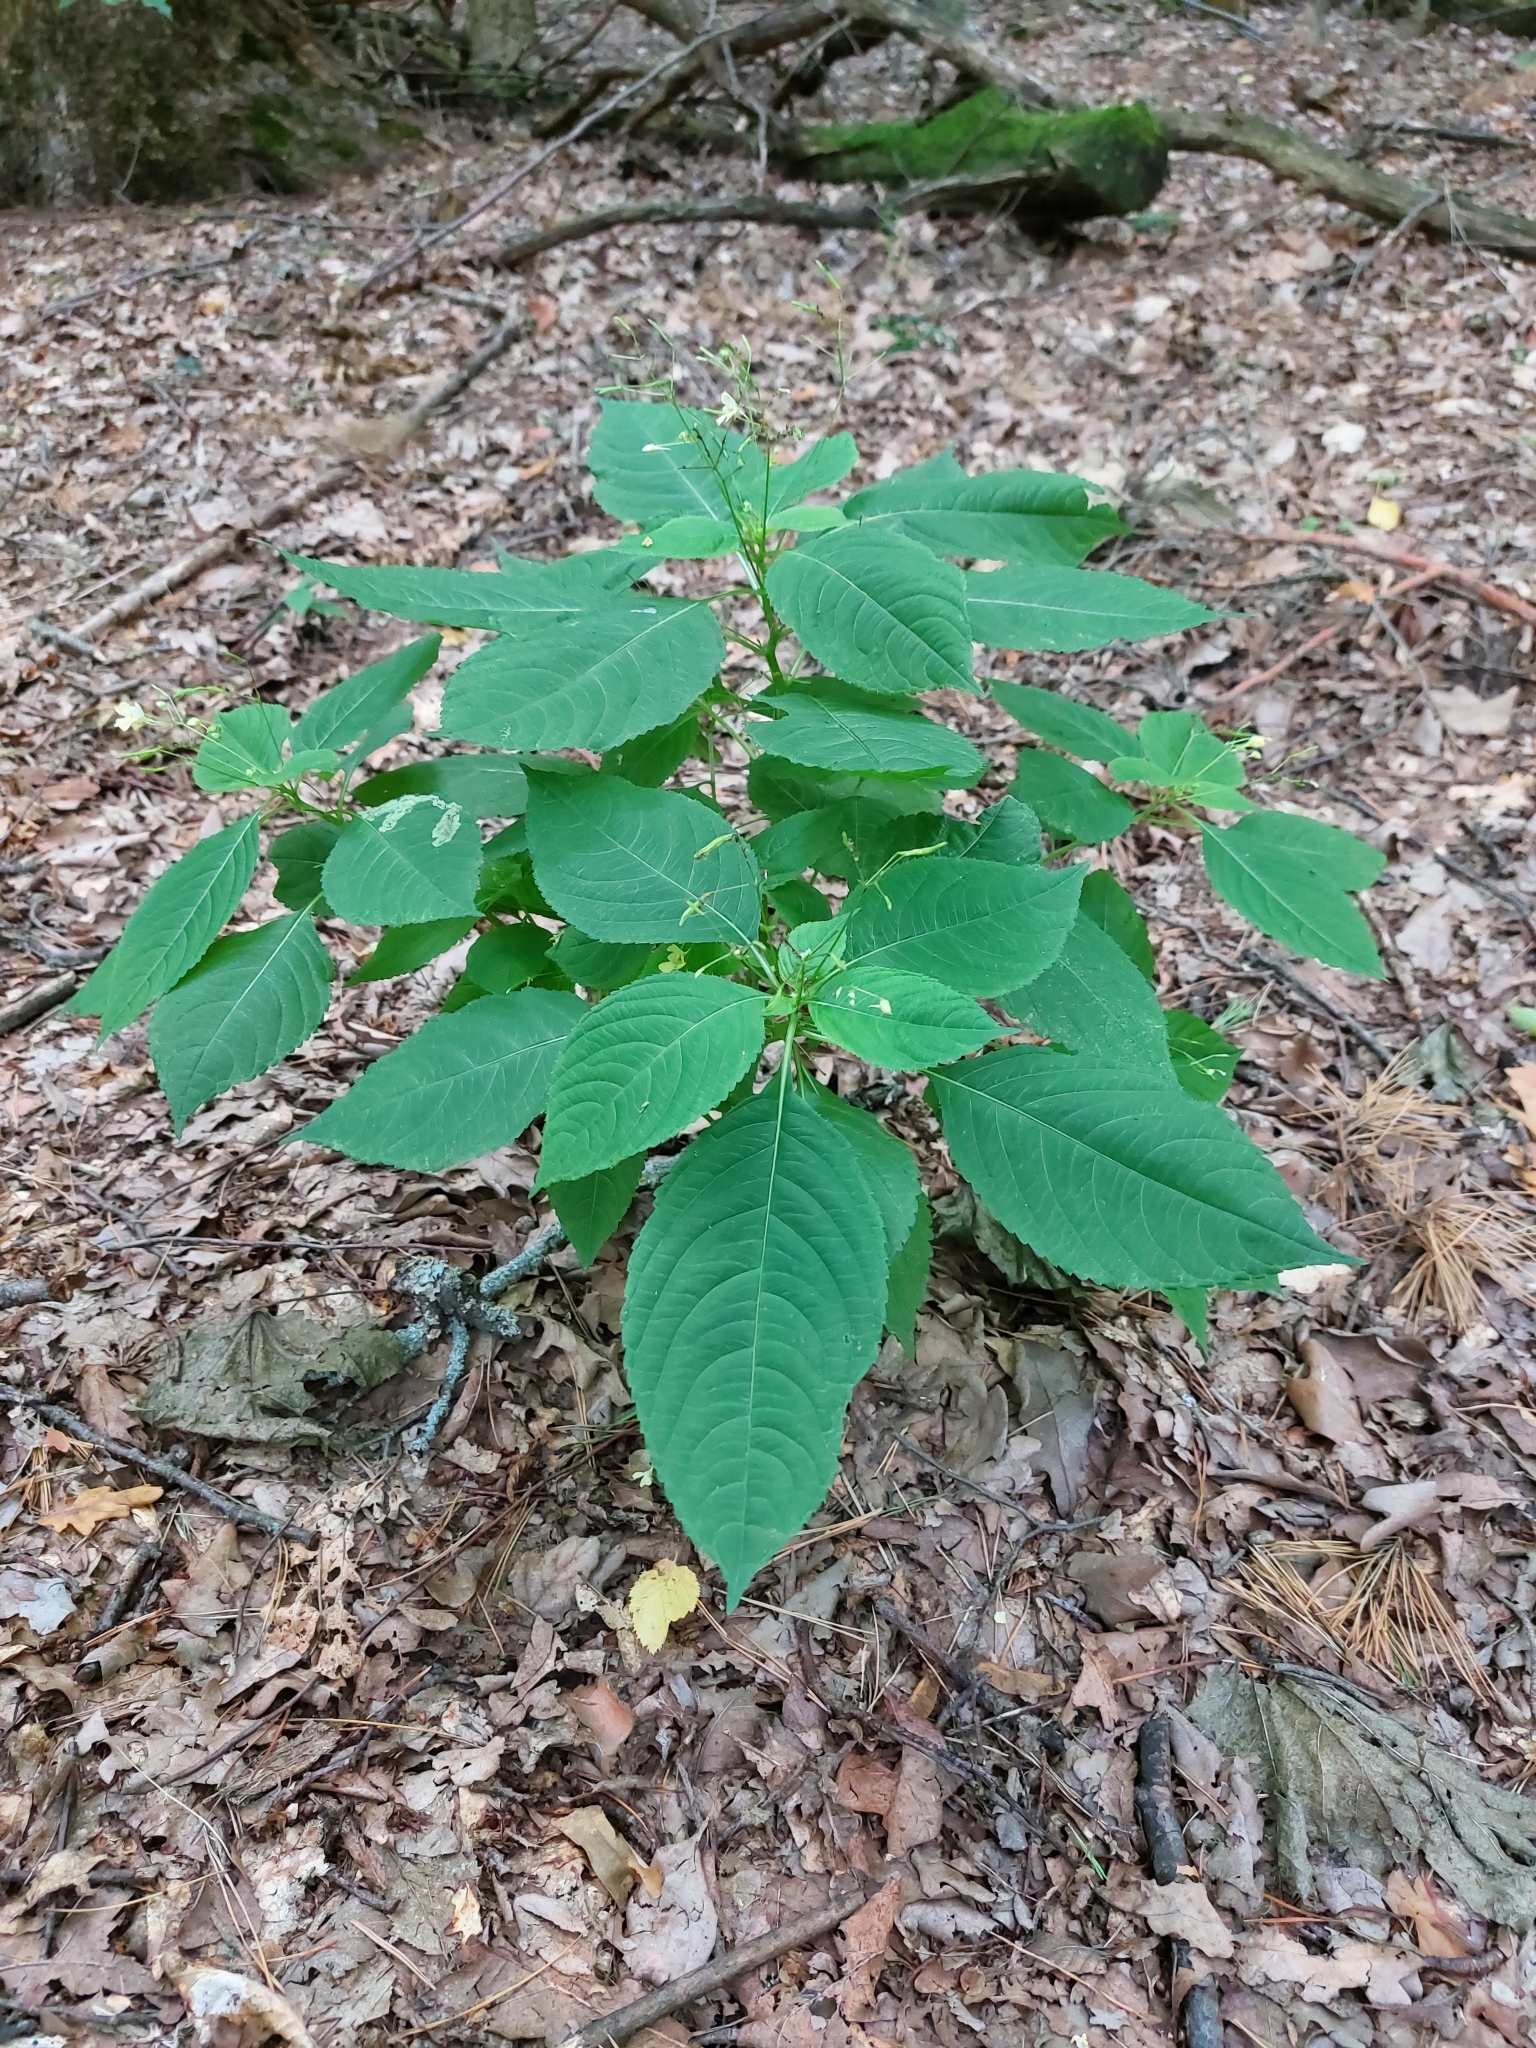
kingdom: Plantae
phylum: Tracheophyta
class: Magnoliopsida
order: Ericales
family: Balsaminaceae
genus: Impatiens
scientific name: Impatiens parviflora
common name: Small balsam
